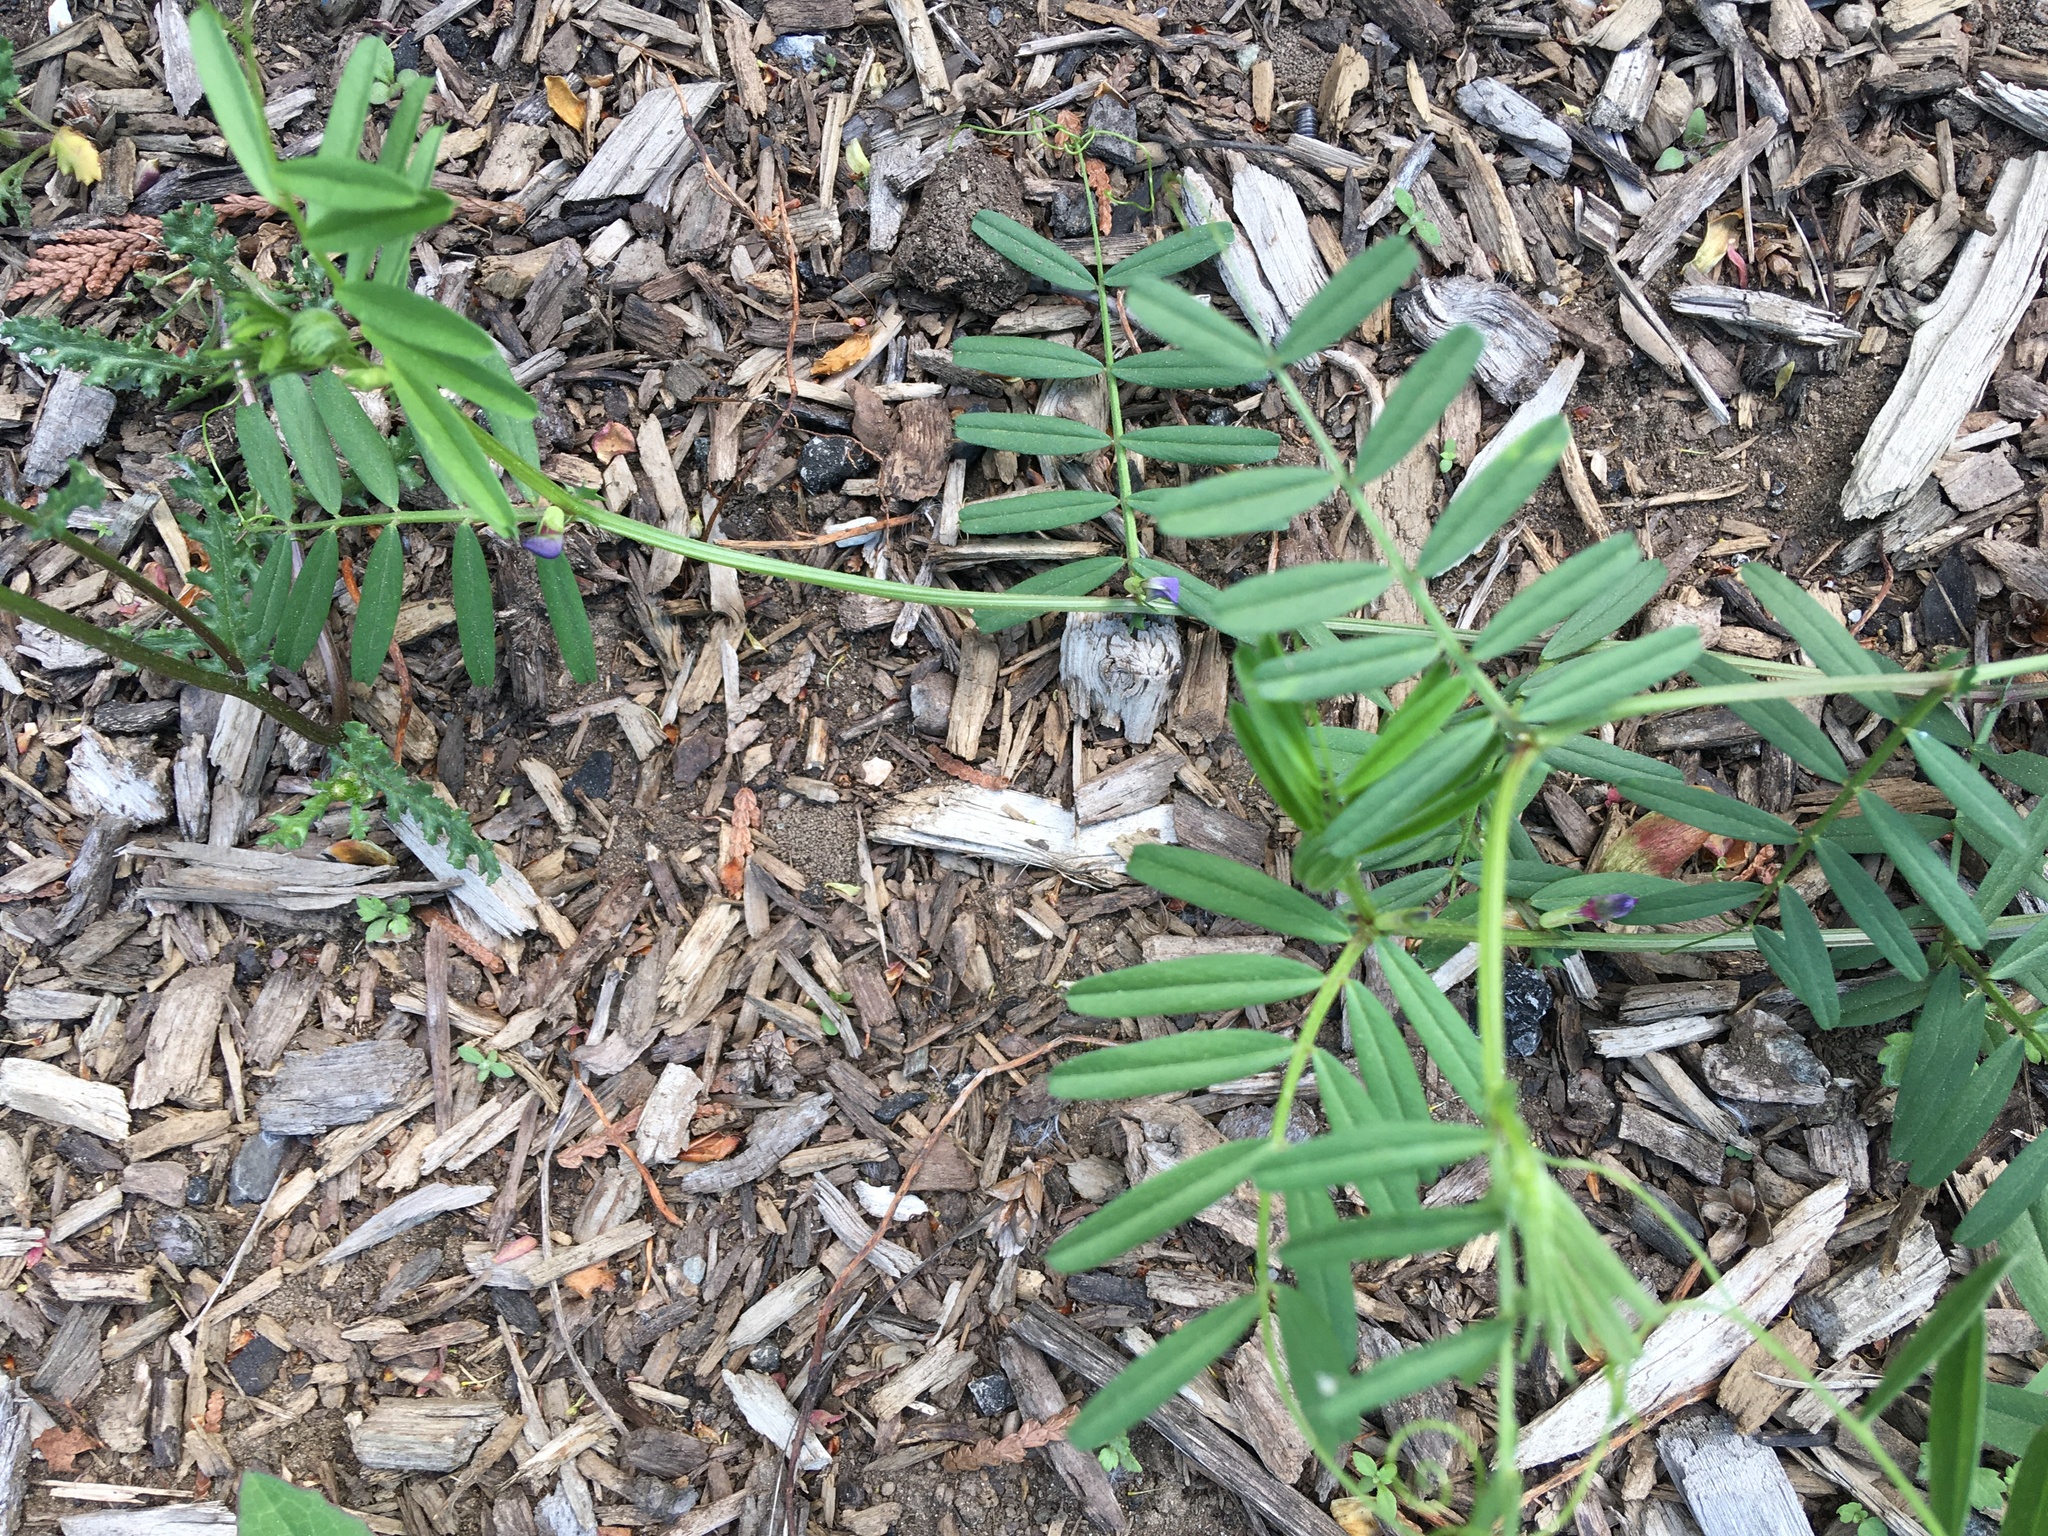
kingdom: Plantae
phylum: Tracheophyta
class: Magnoliopsida
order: Fabales
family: Fabaceae
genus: Vicia
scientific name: Vicia sativa
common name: Garden vetch
